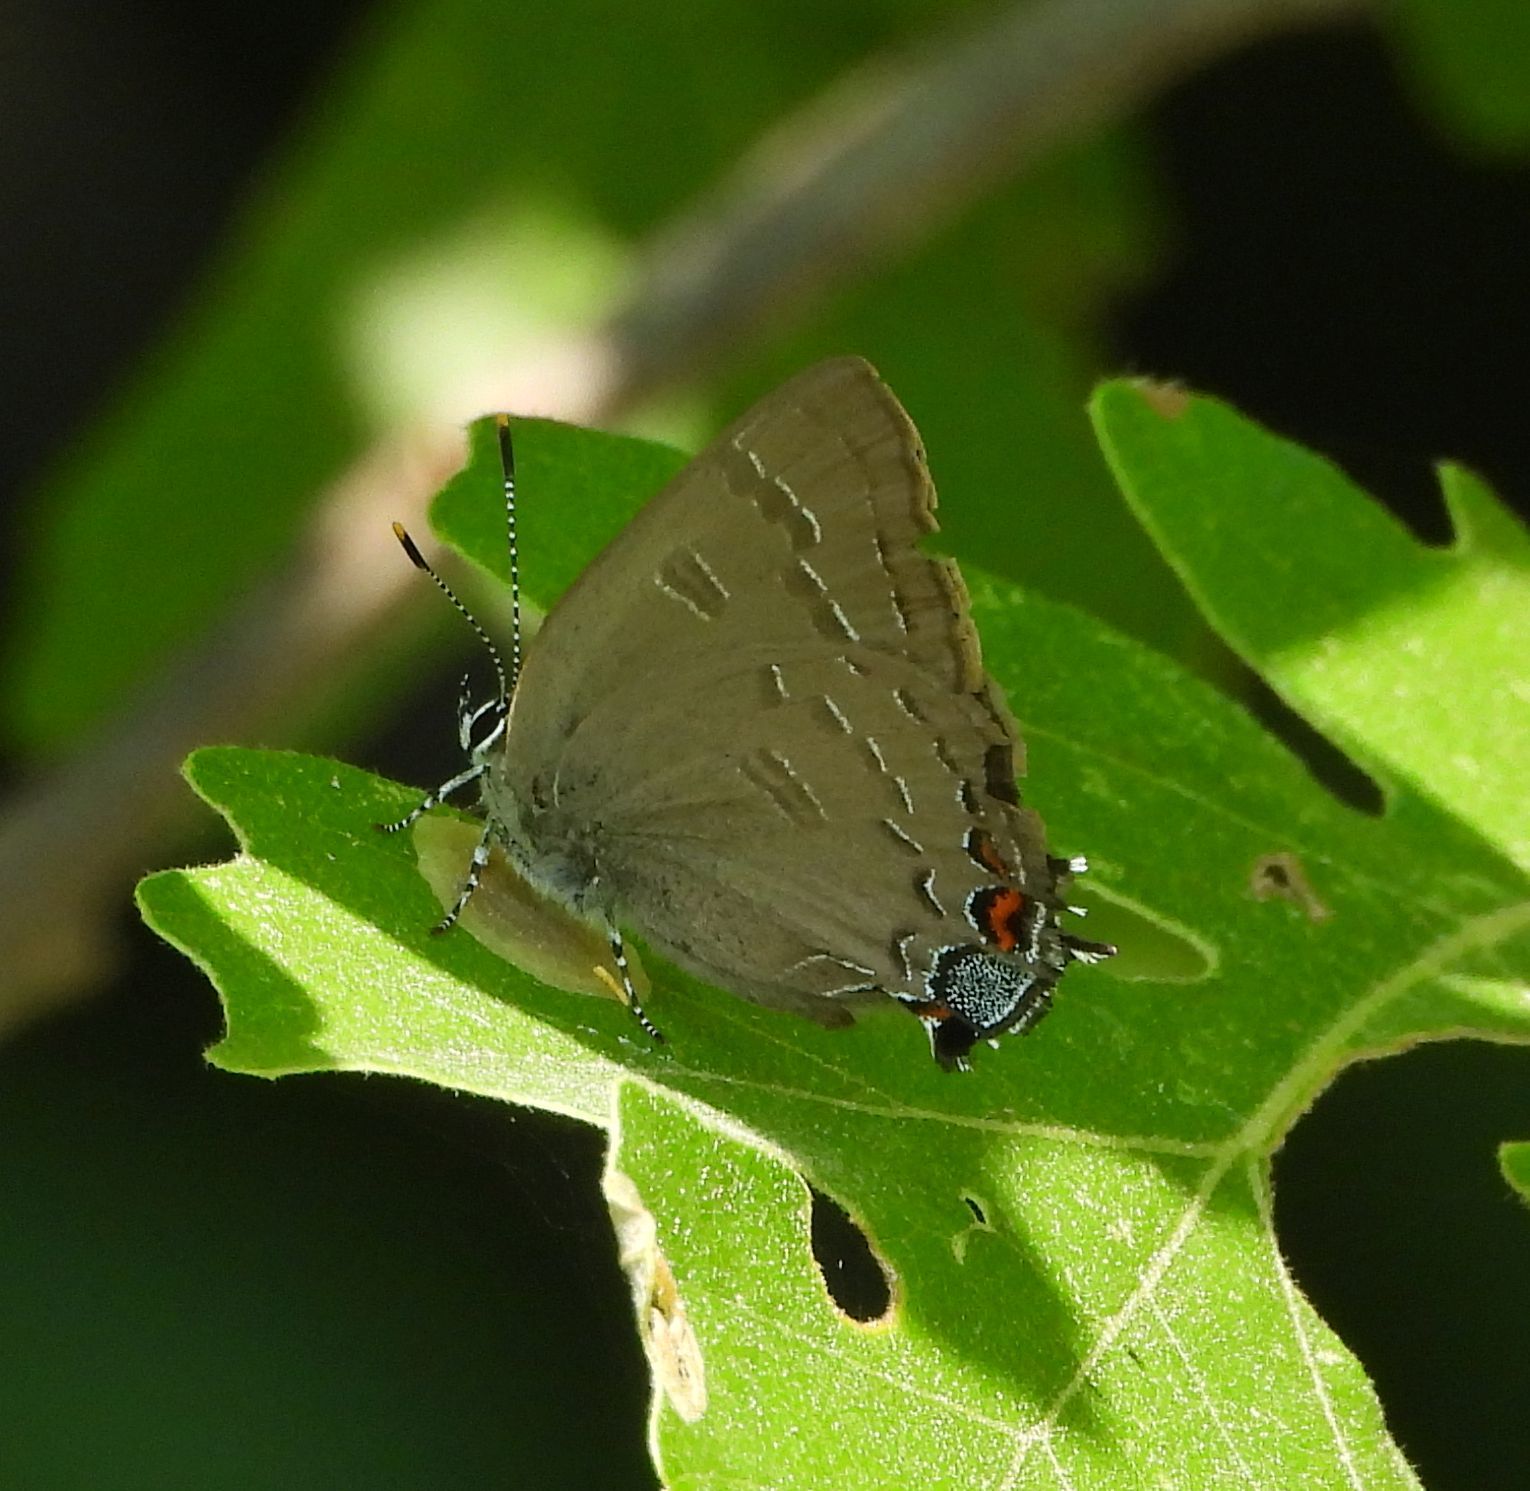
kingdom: Animalia
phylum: Arthropoda
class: Insecta
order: Lepidoptera
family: Lycaenidae
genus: Satyrium
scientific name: Satyrium calanus
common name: Banded hairstreak
